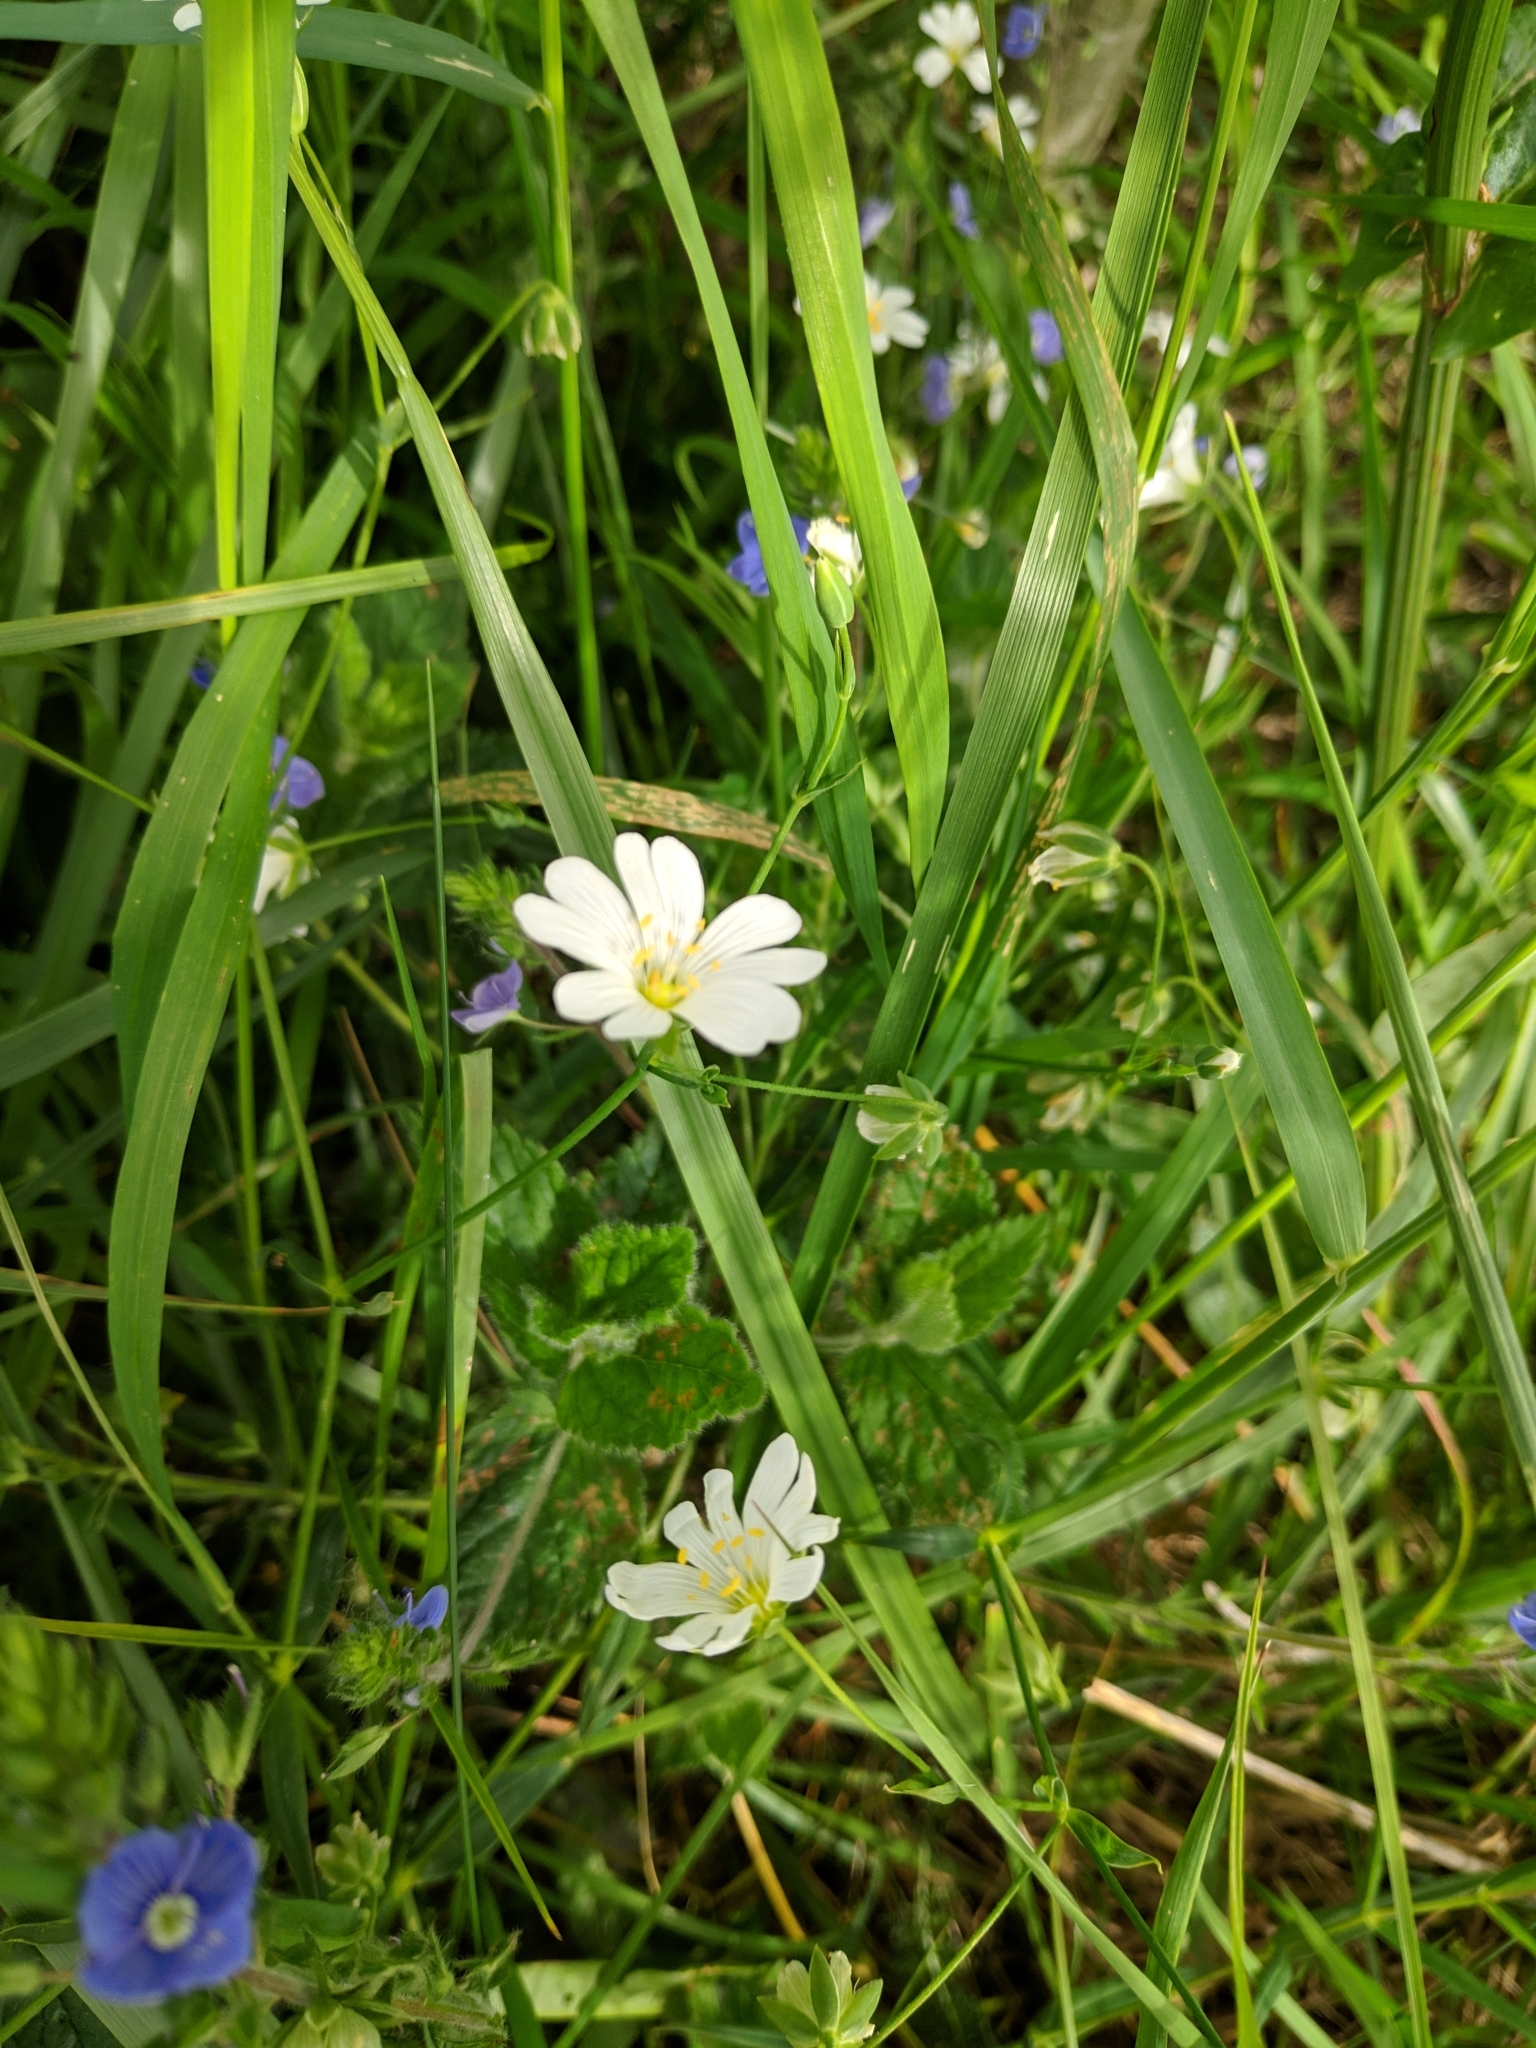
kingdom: Plantae
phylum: Tracheophyta
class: Magnoliopsida
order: Caryophyllales
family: Caryophyllaceae
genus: Rabelera
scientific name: Rabelera holostea
